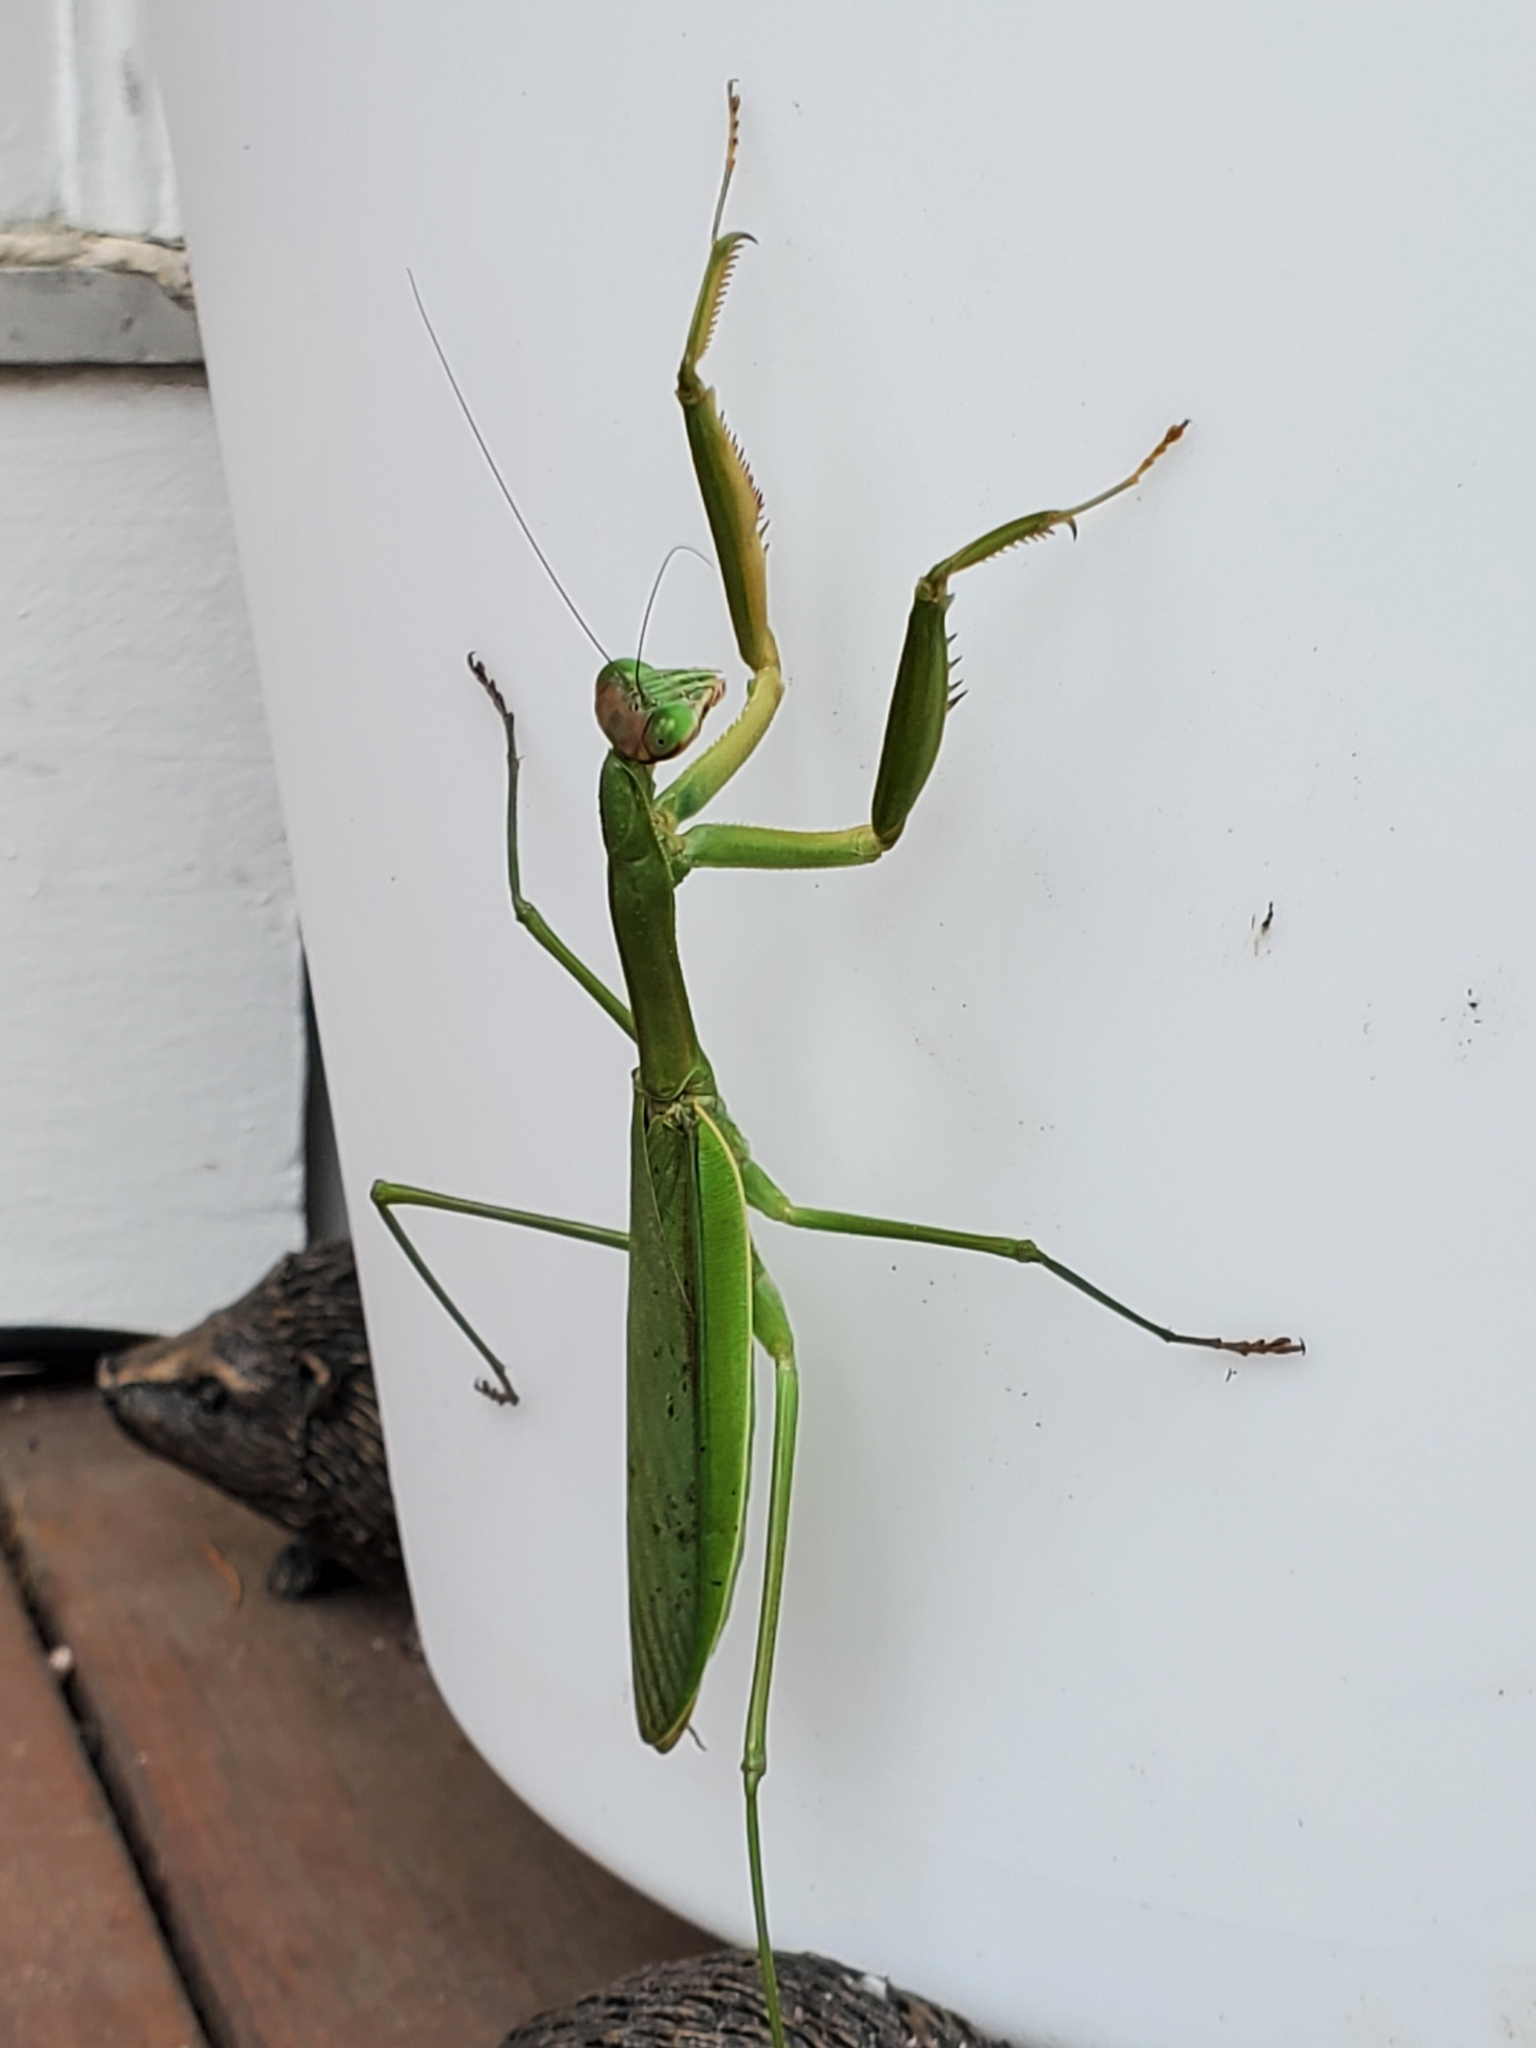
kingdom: Animalia
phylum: Arthropoda
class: Insecta
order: Mantodea
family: Mantidae
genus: Tenodera
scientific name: Tenodera sinensis
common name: Chinese mantis
